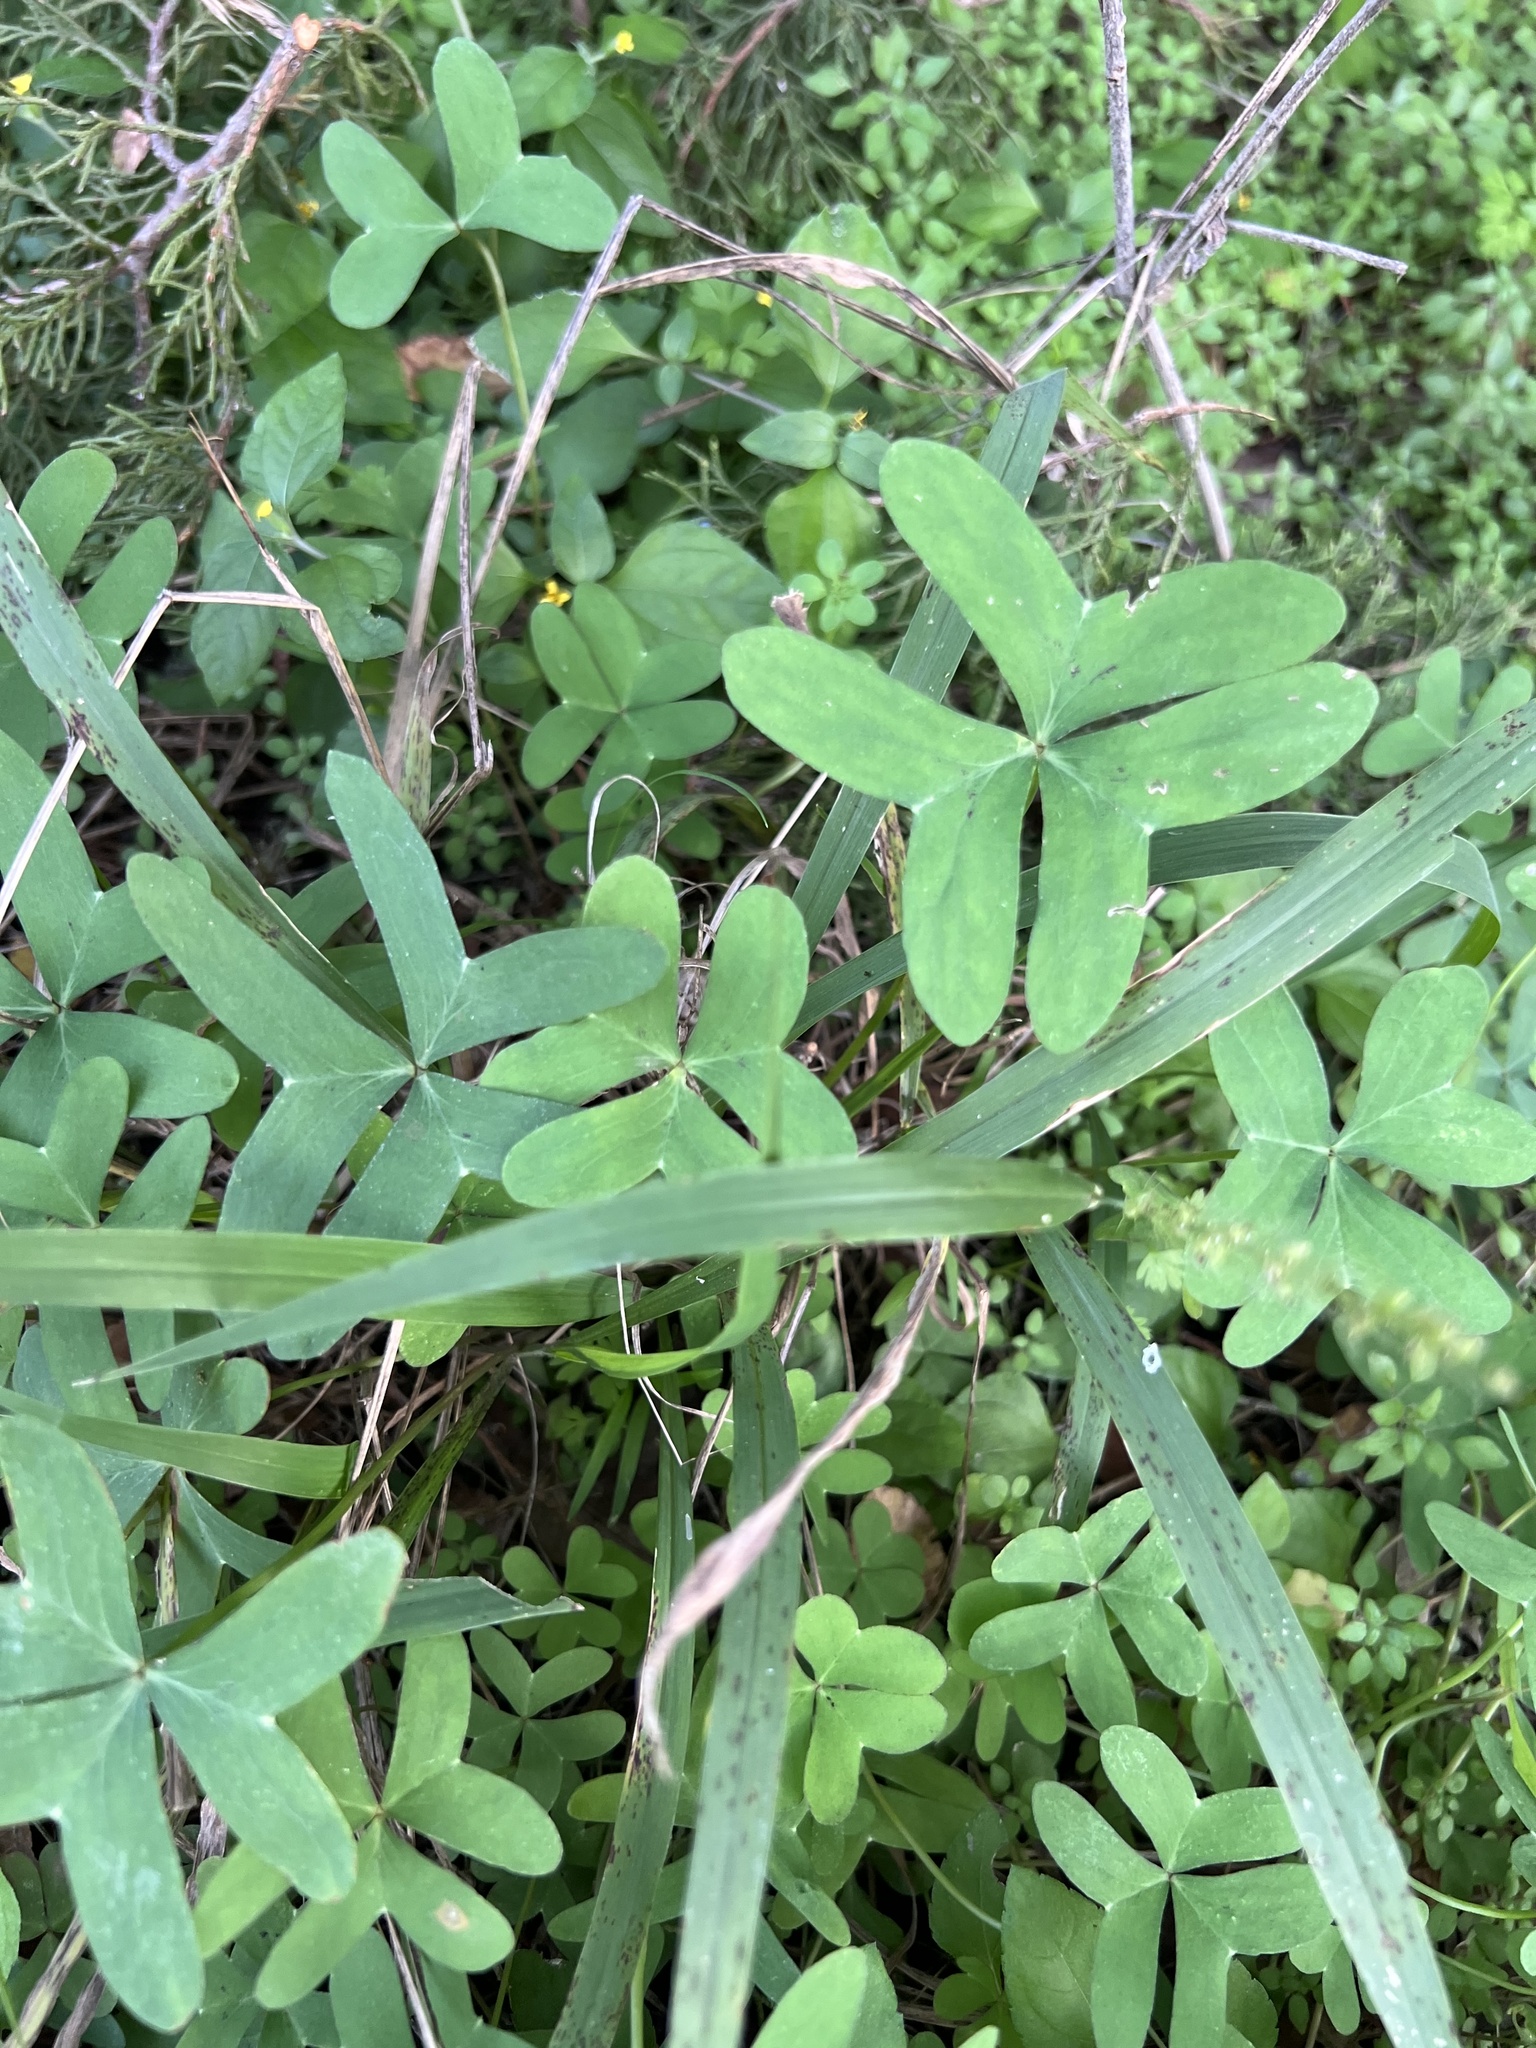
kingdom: Plantae
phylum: Tracheophyta
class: Magnoliopsida
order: Oxalidales
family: Oxalidaceae
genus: Oxalis
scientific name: Oxalis drummondii
